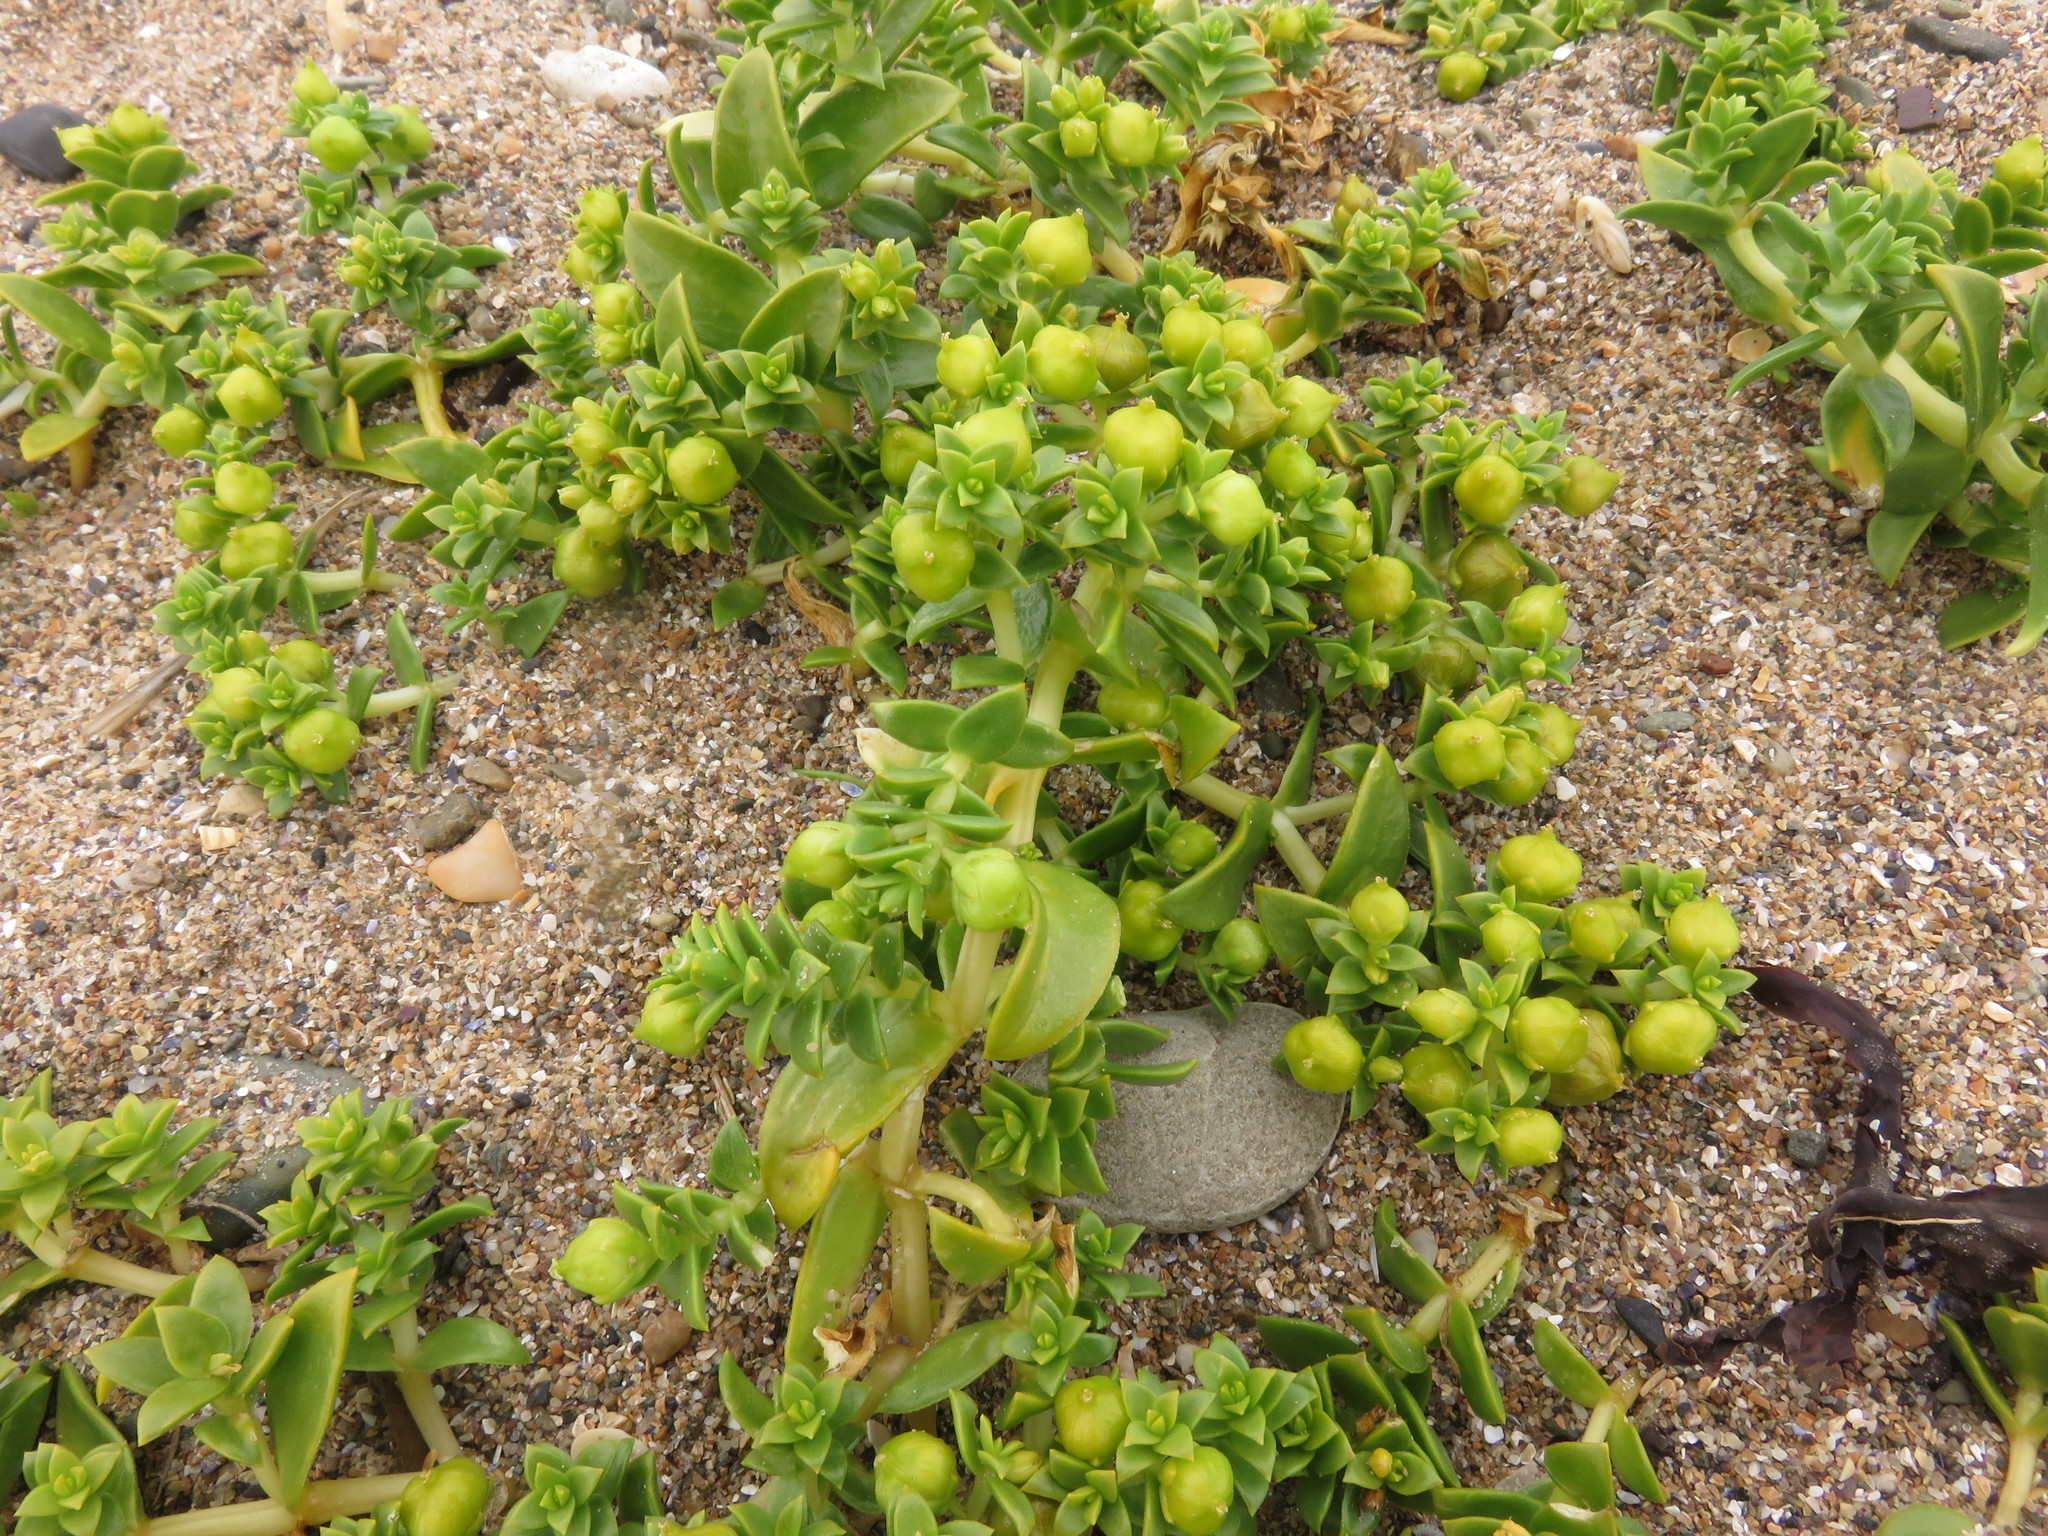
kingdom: Plantae
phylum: Tracheophyta
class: Magnoliopsida
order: Caryophyllales
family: Caryophyllaceae
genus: Honckenya
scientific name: Honckenya peploides
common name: Sea sandwort
